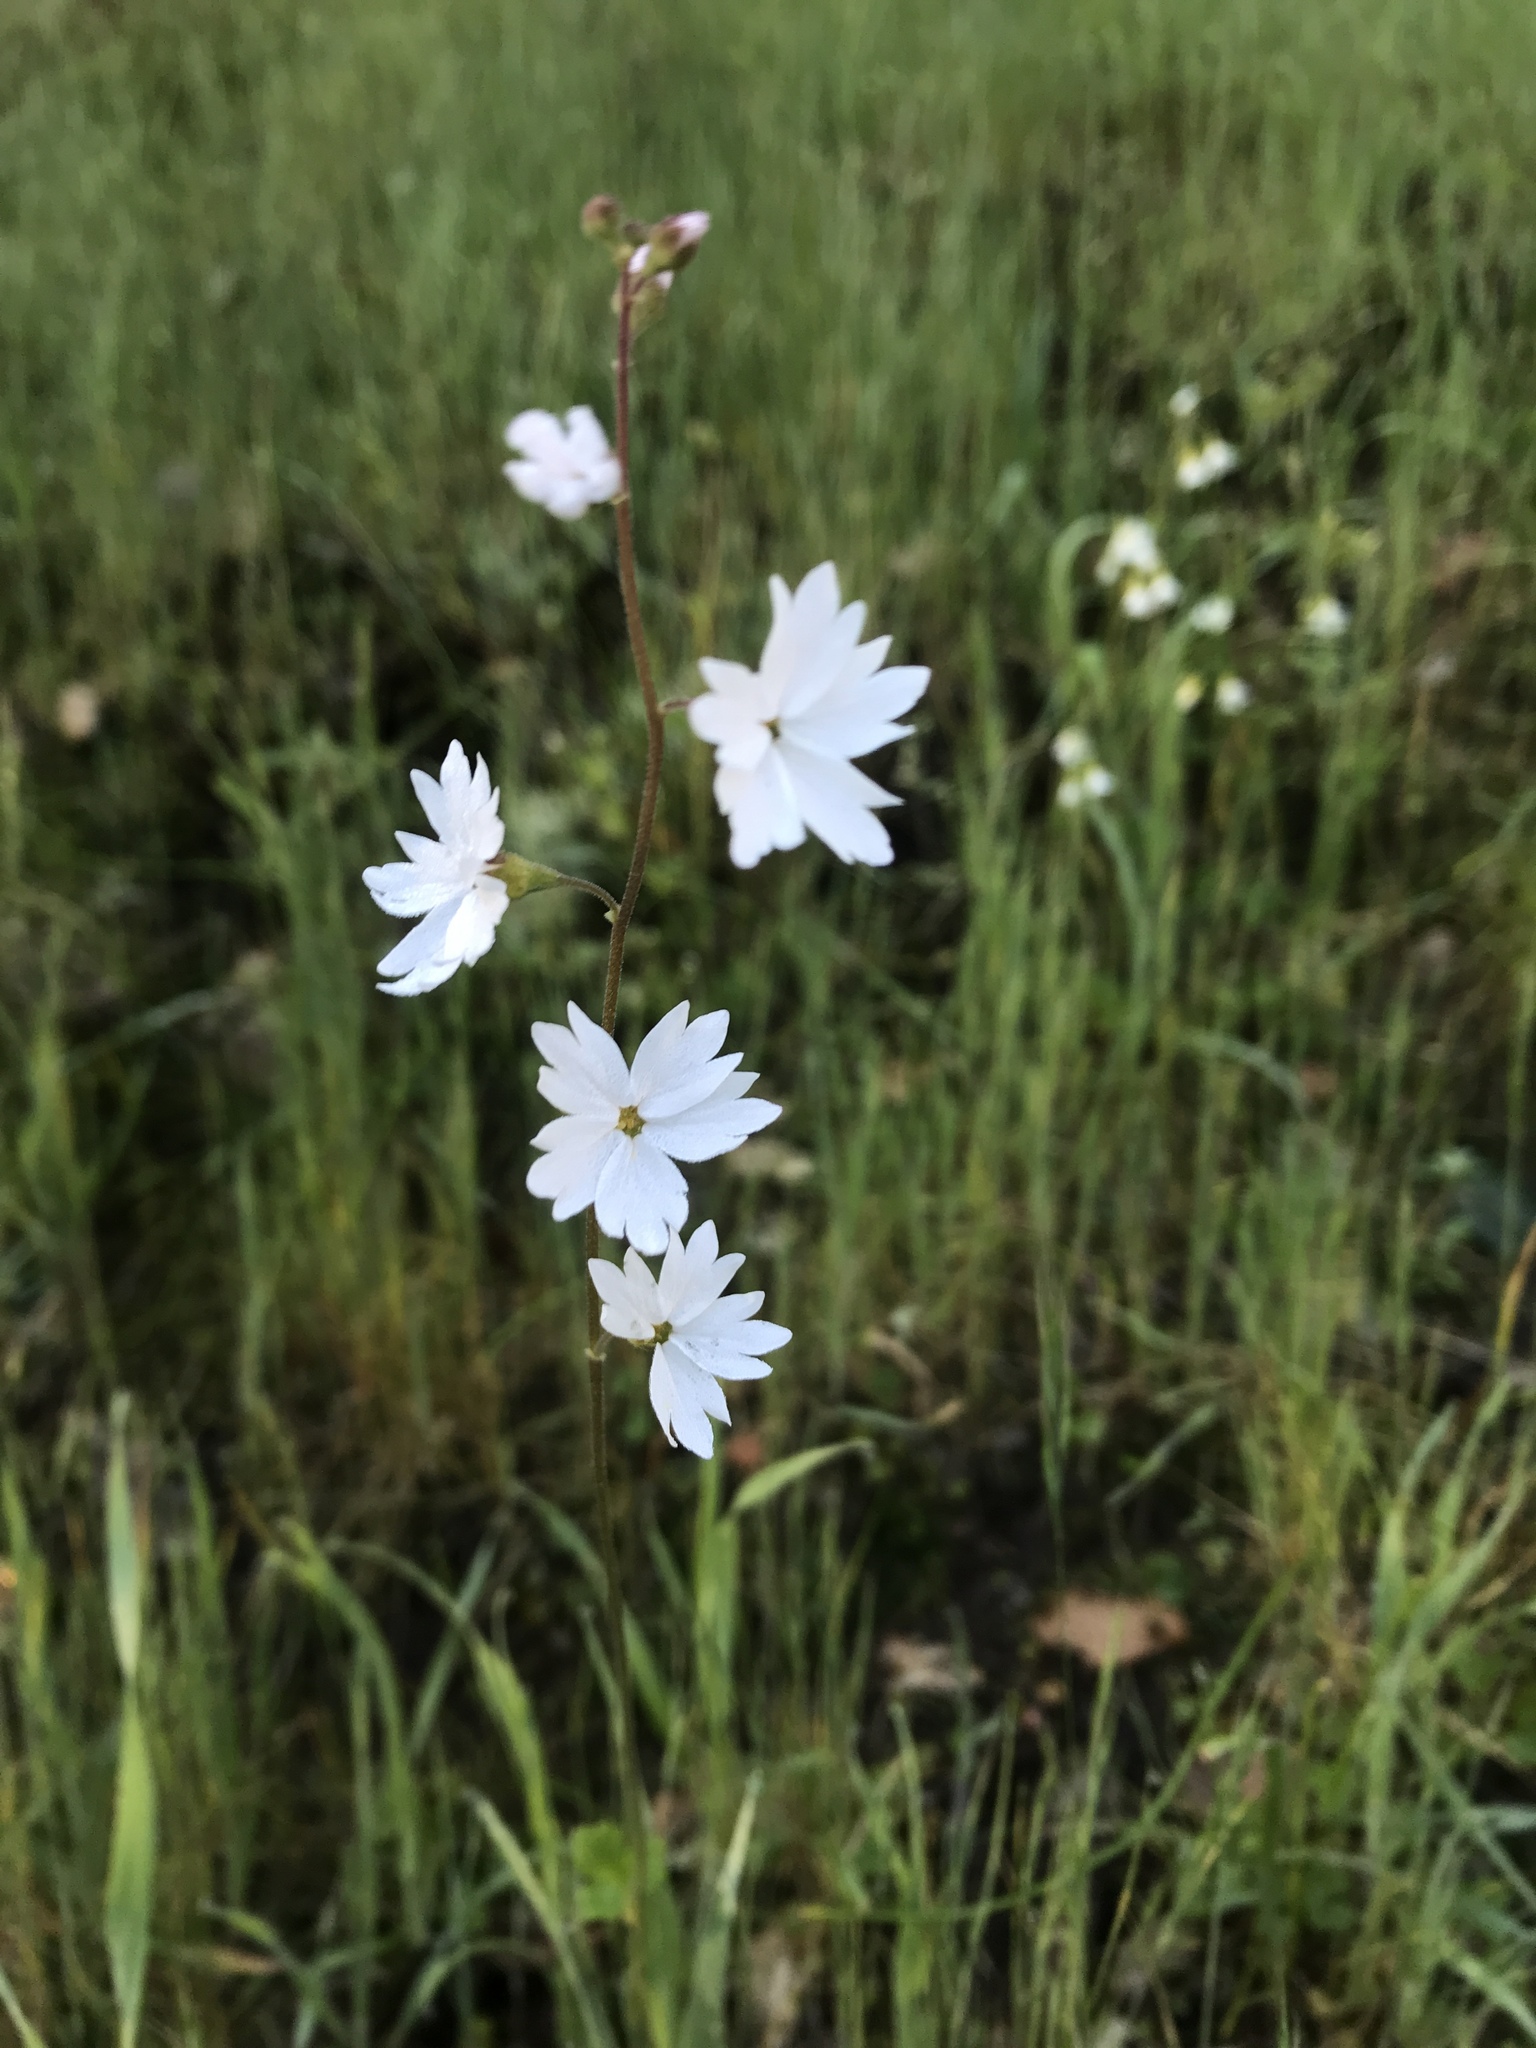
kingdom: Plantae
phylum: Tracheophyta
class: Magnoliopsida
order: Saxifragales
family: Saxifragaceae
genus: Lithophragma
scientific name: Lithophragma affine
